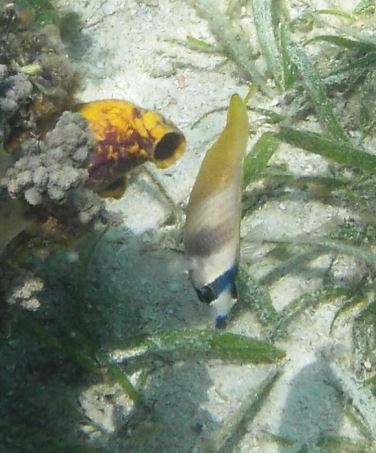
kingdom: Animalia
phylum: Chordata
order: Perciformes
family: Chaetodontidae
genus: Chaetodon
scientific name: Chaetodon kleinii
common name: Klein's butterflyfish
